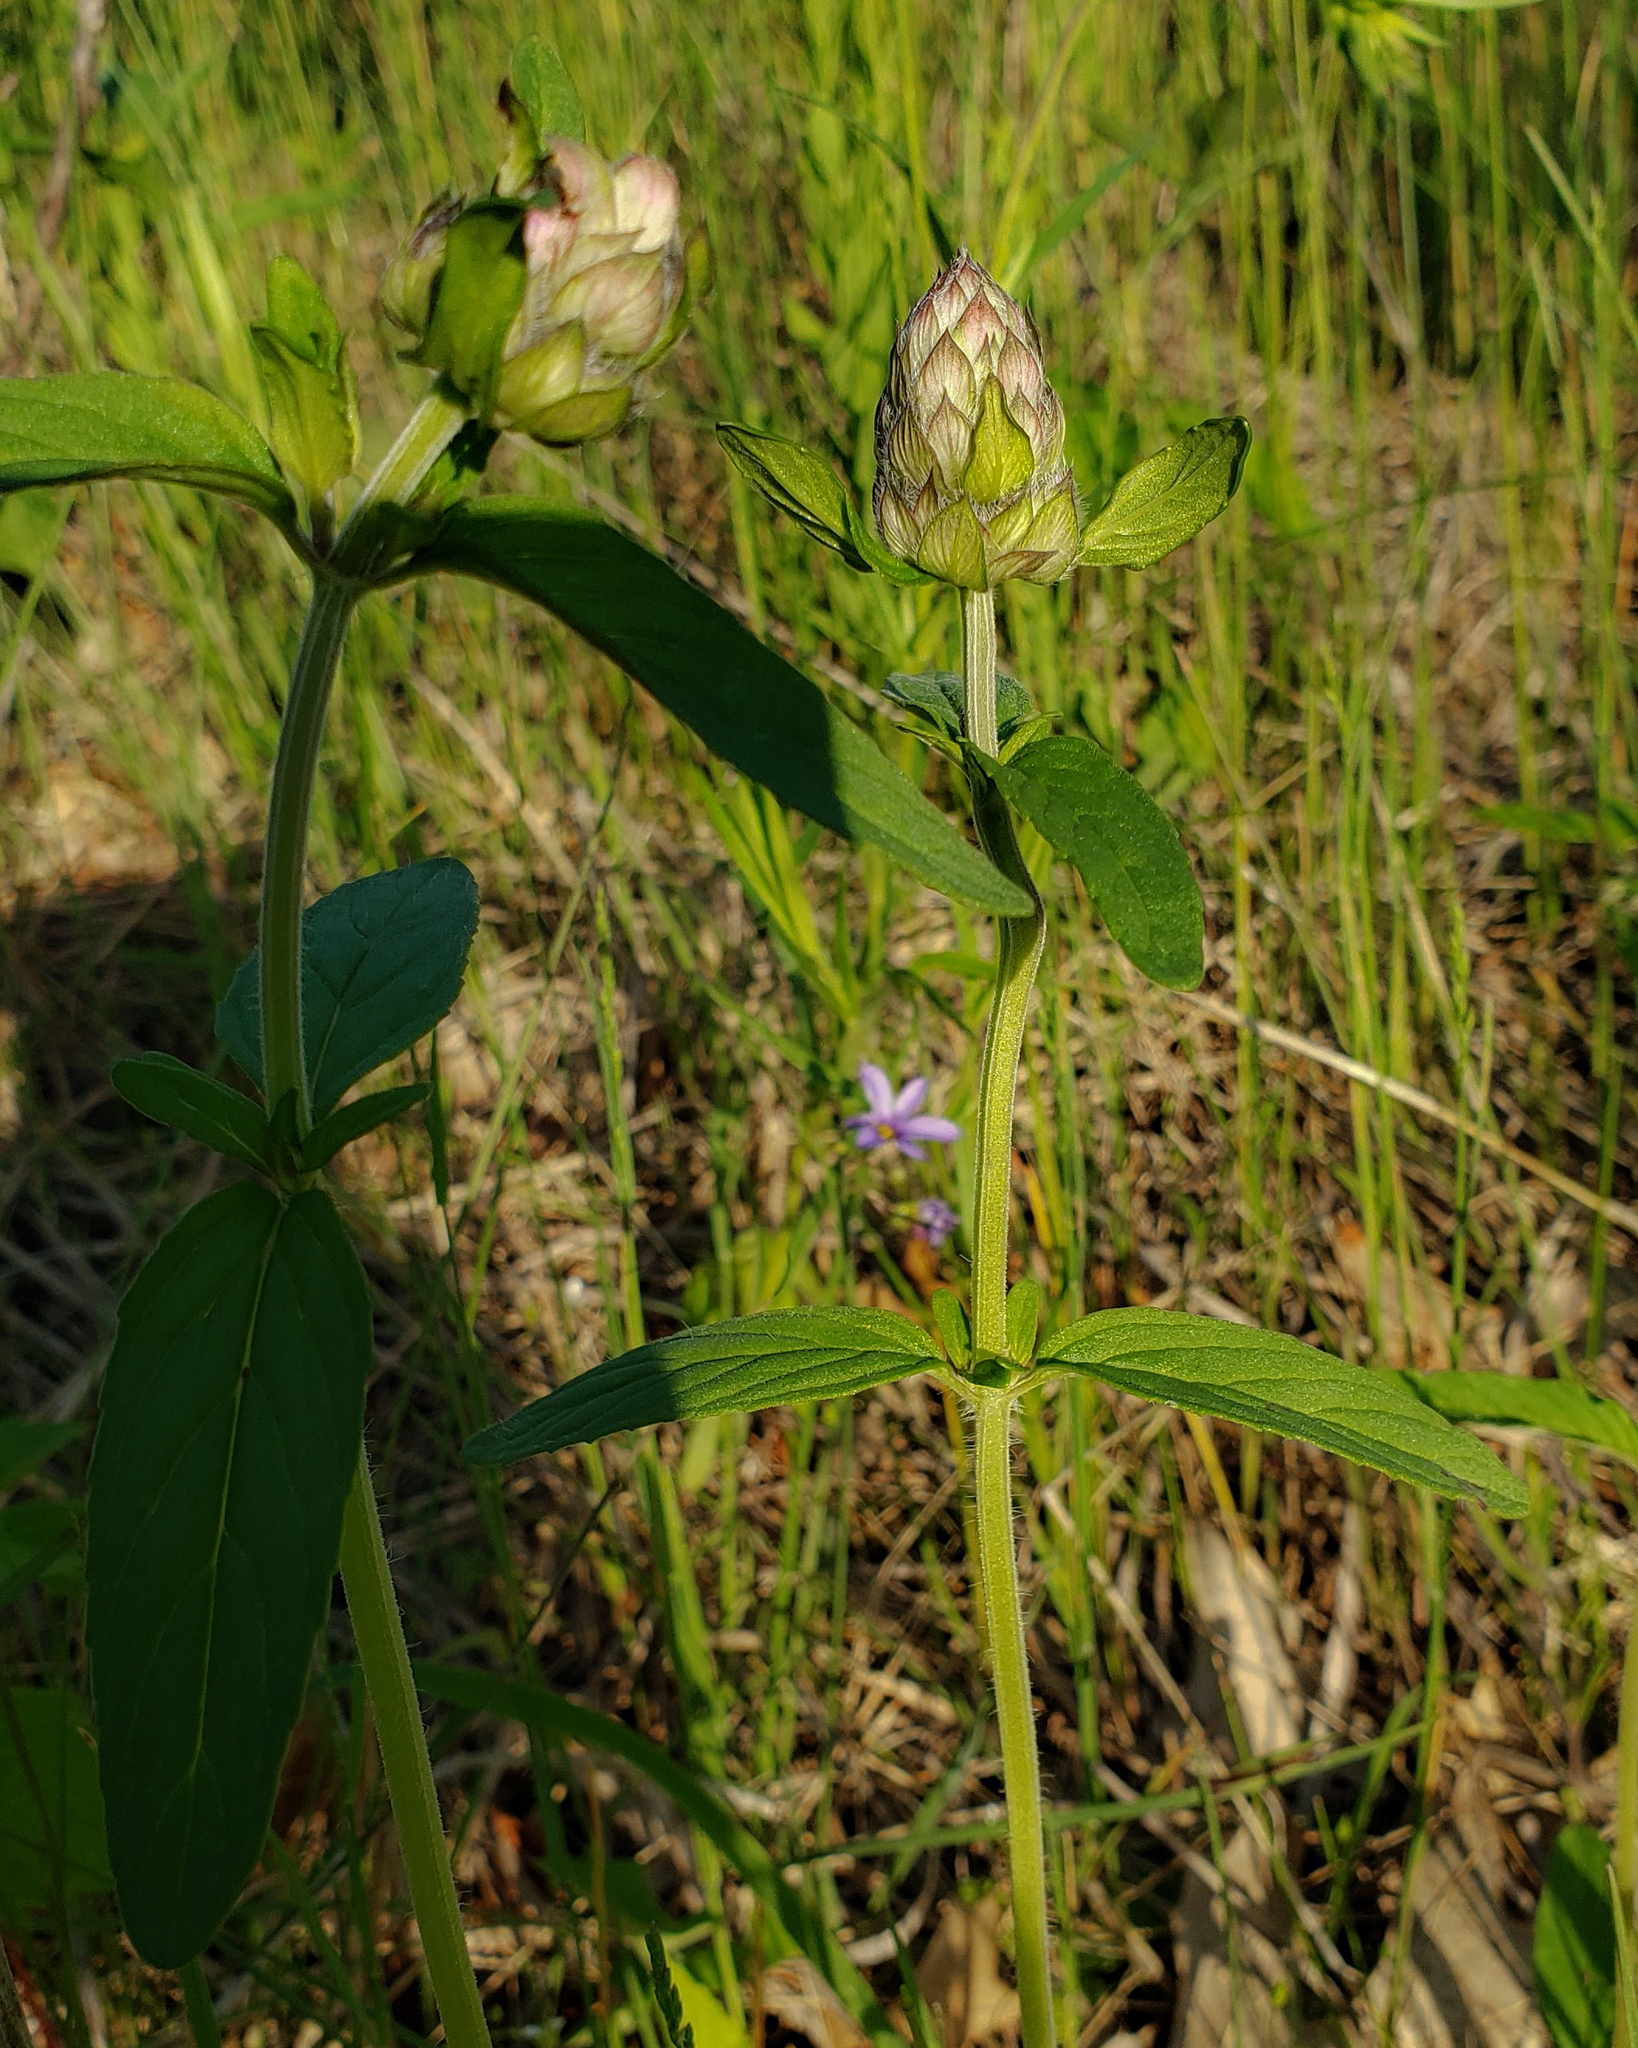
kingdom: Plantae
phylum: Tracheophyta
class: Magnoliopsida
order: Lamiales
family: Lamiaceae
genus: Blephilia
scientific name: Blephilia ciliata
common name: Downy blephilia
